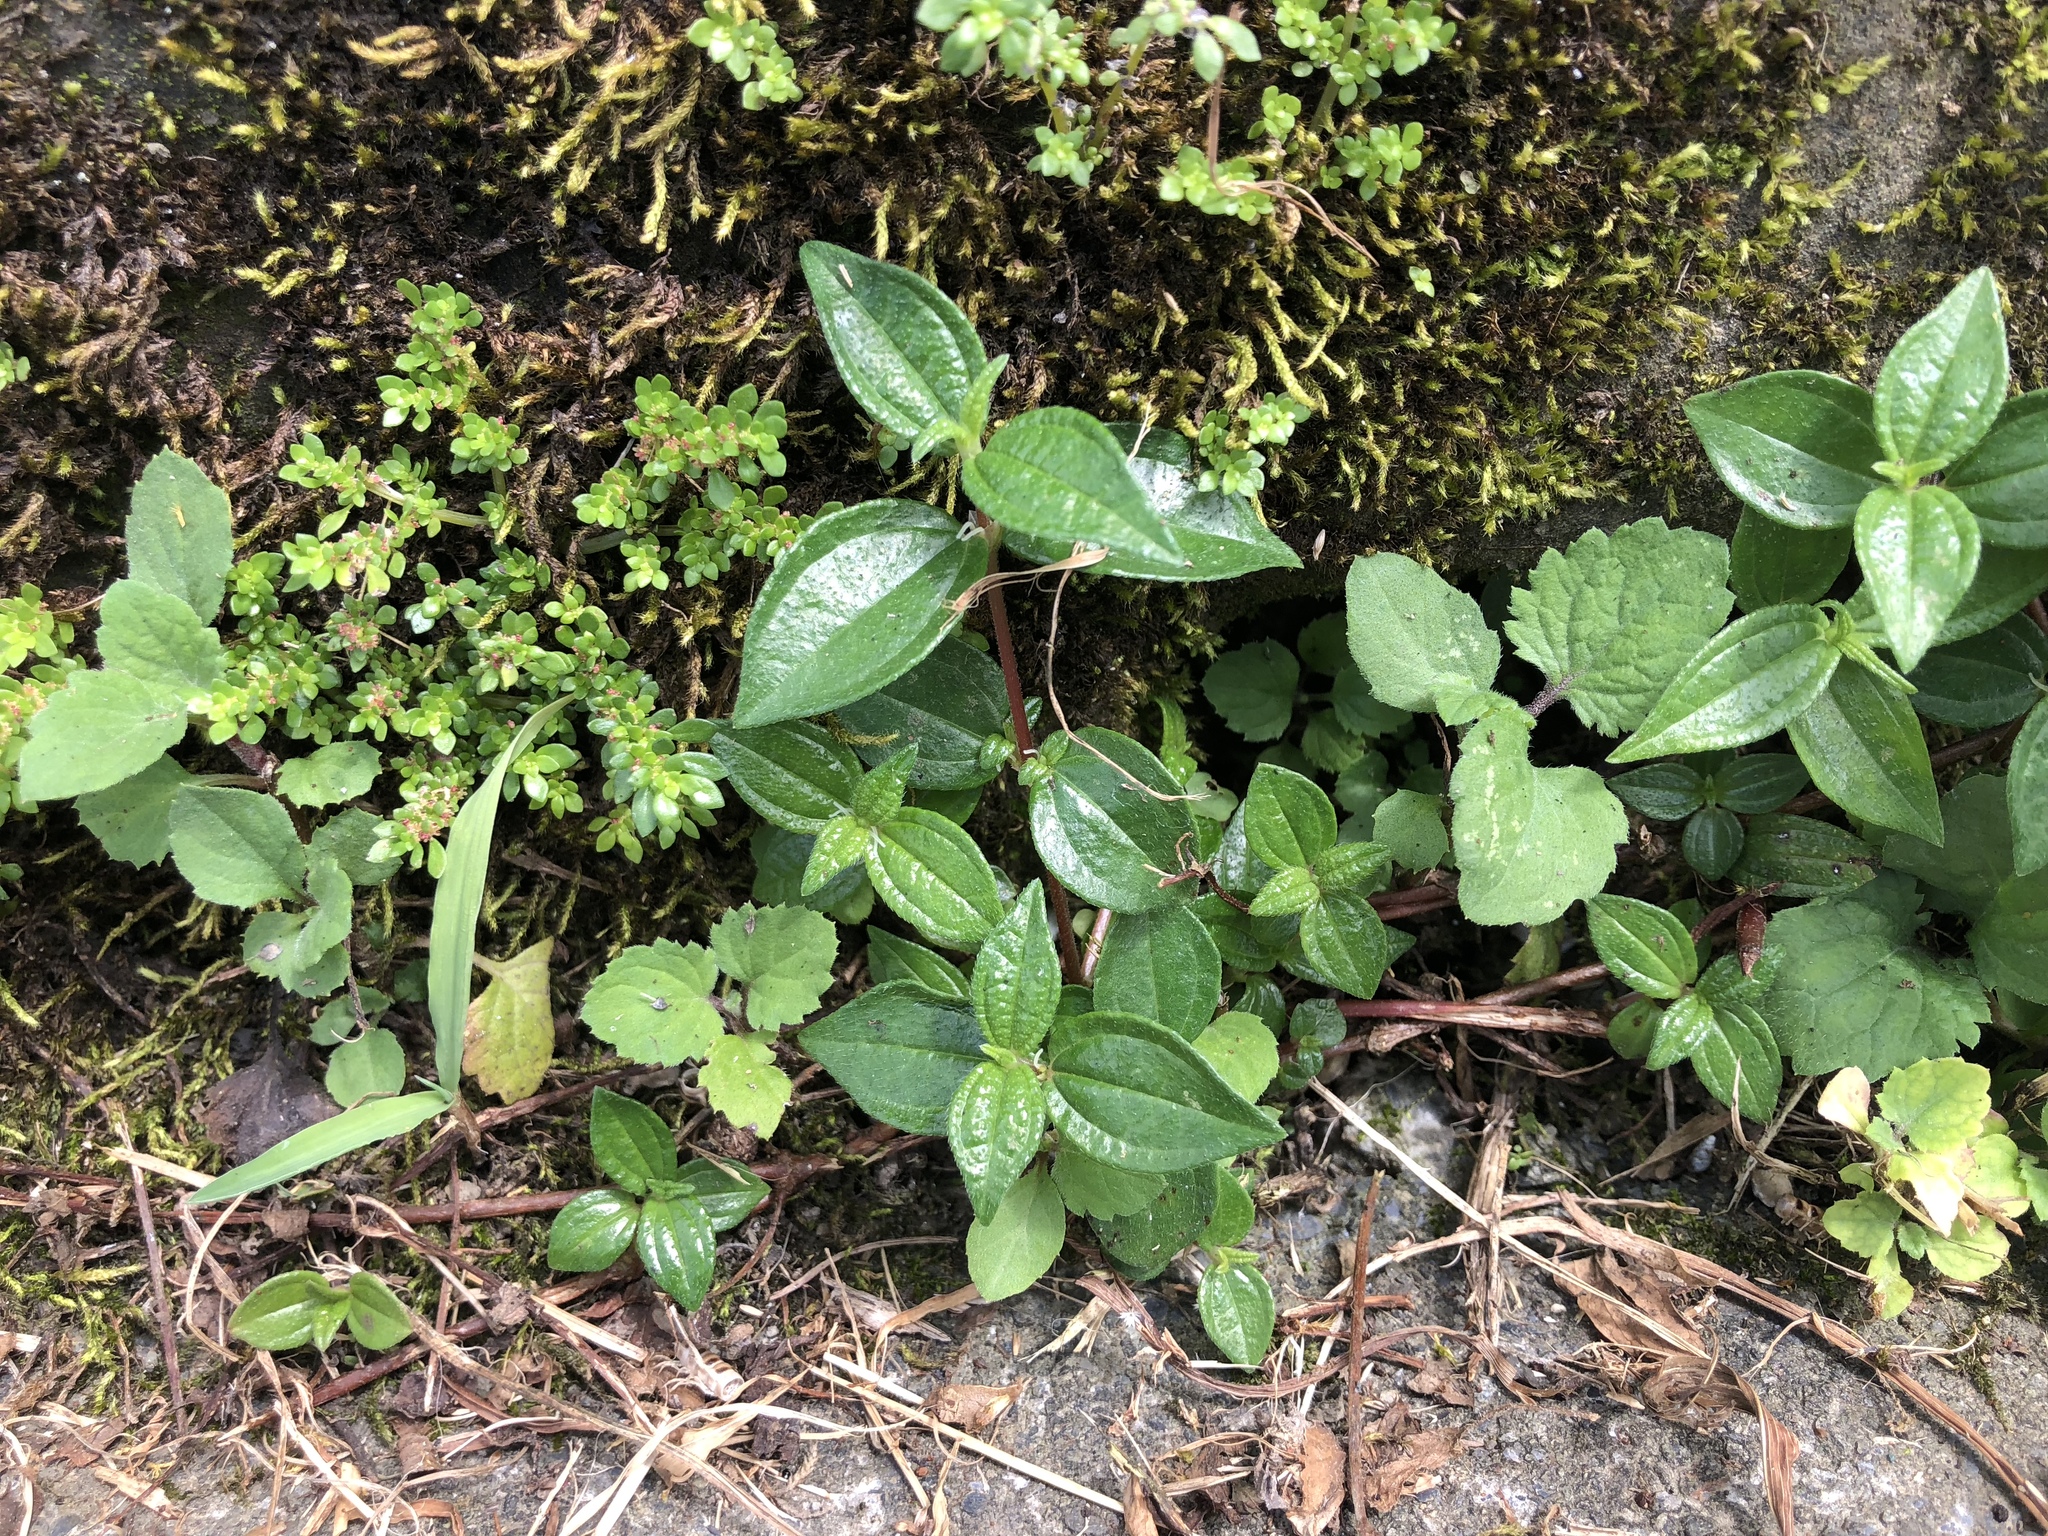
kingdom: Plantae
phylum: Tracheophyta
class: Magnoliopsida
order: Rosales
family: Urticaceae
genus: Gonostegia
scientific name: Gonostegia triandra
